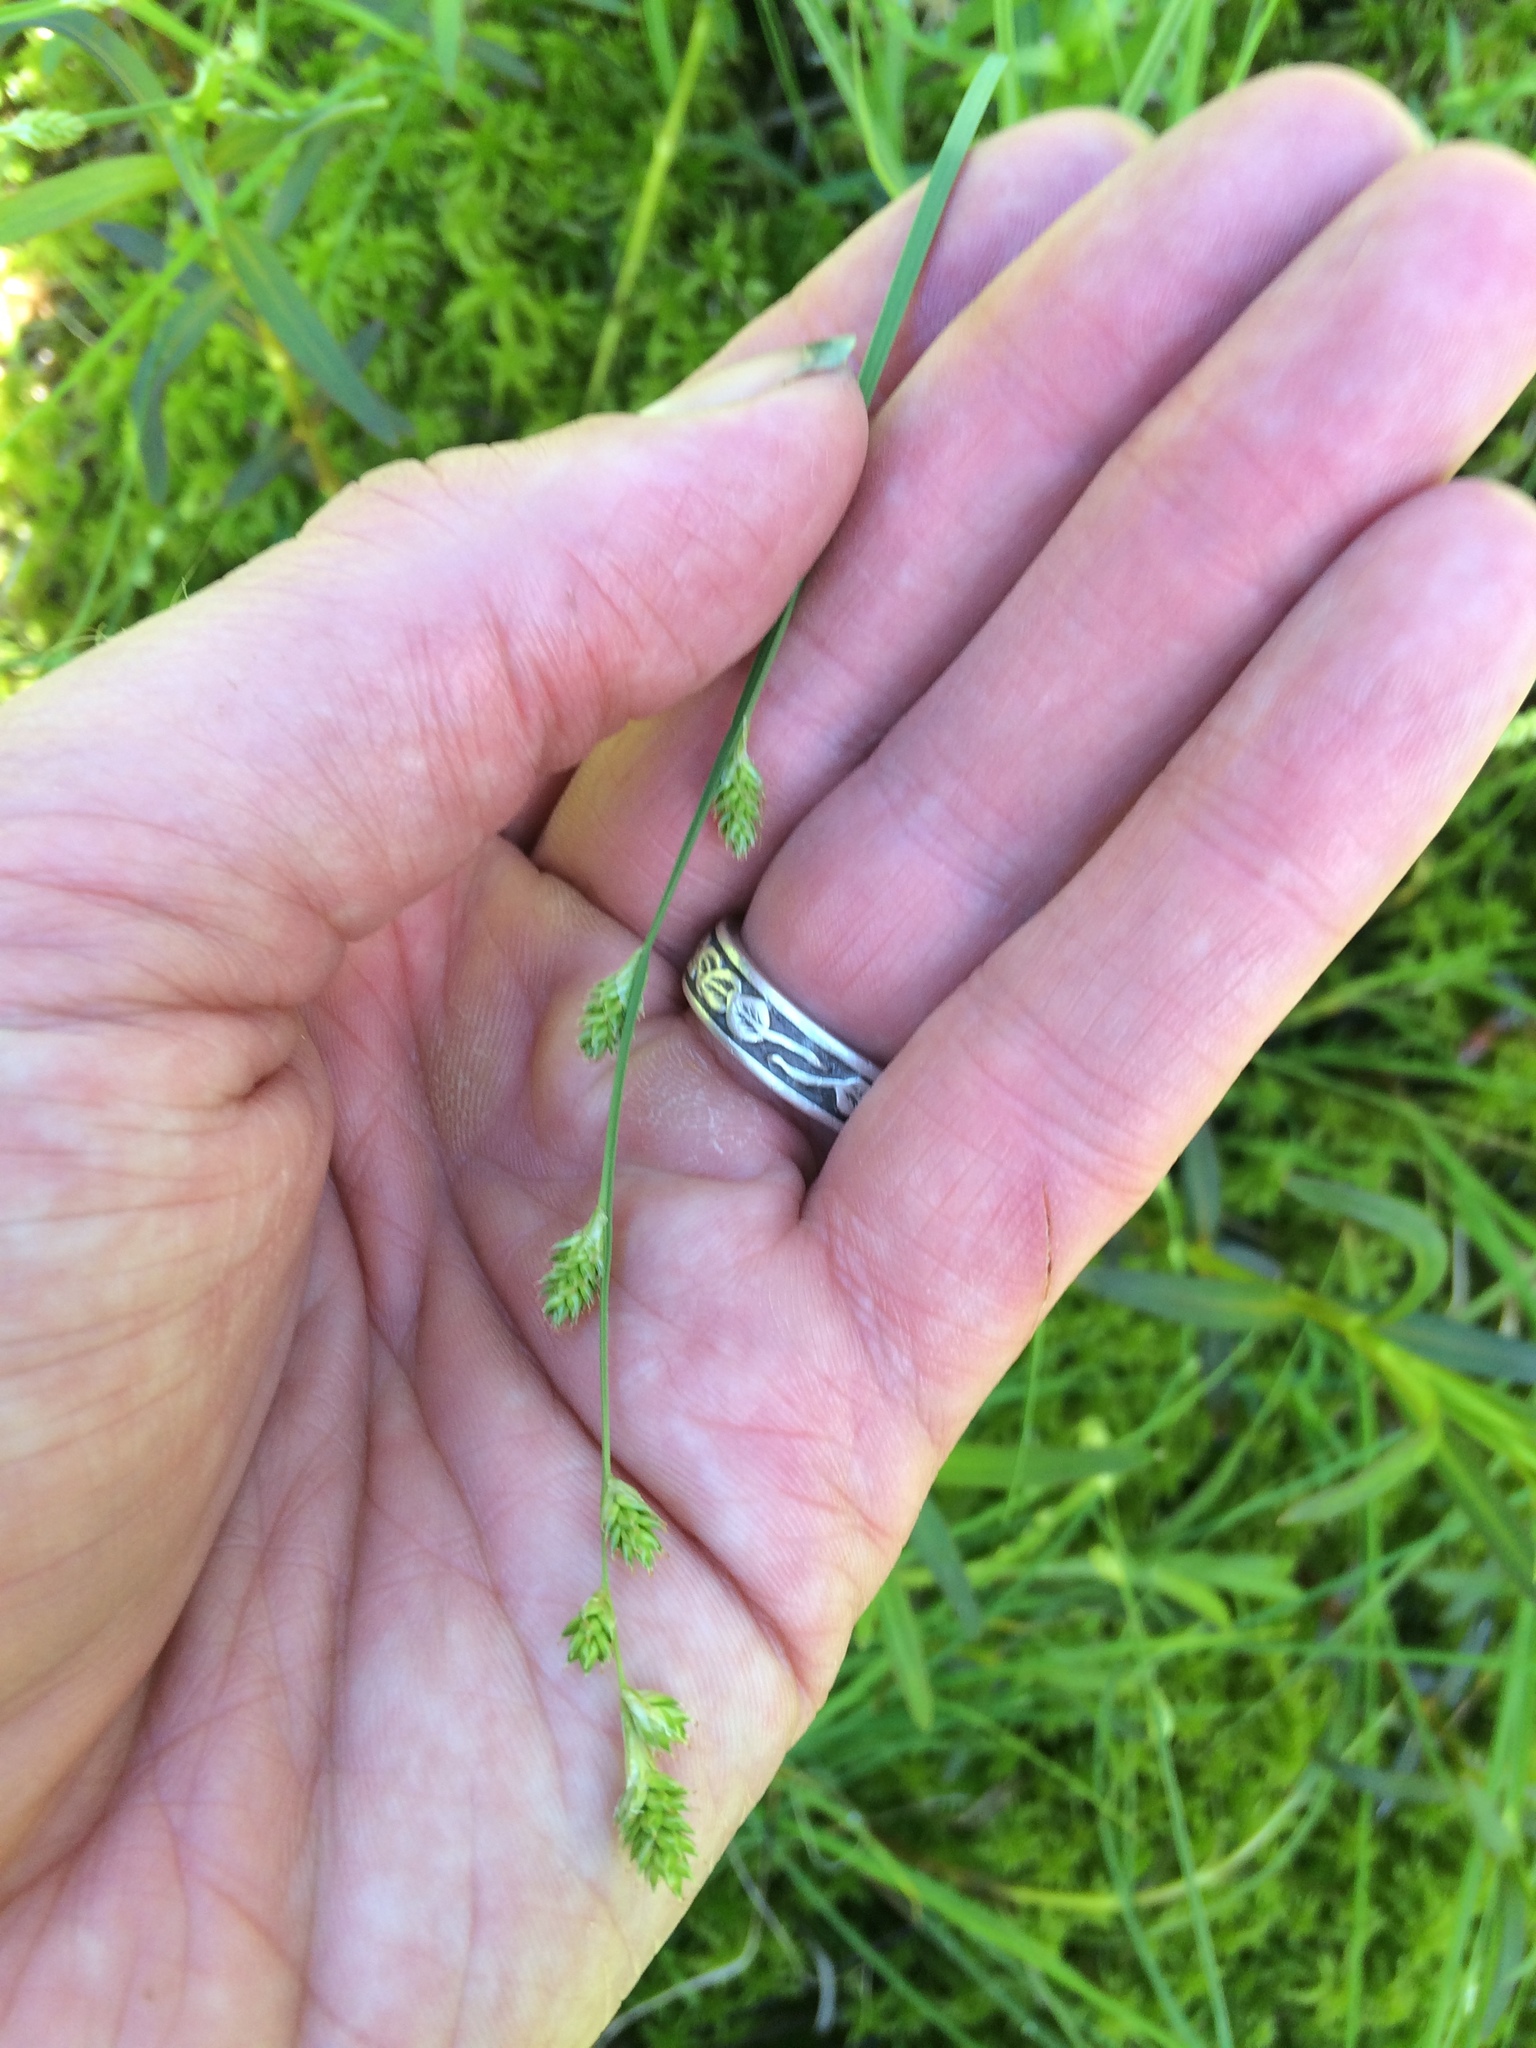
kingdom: Plantae
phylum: Tracheophyta
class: Liliopsida
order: Poales
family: Cyperaceae
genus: Carex
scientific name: Carex canescens
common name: White sedge
